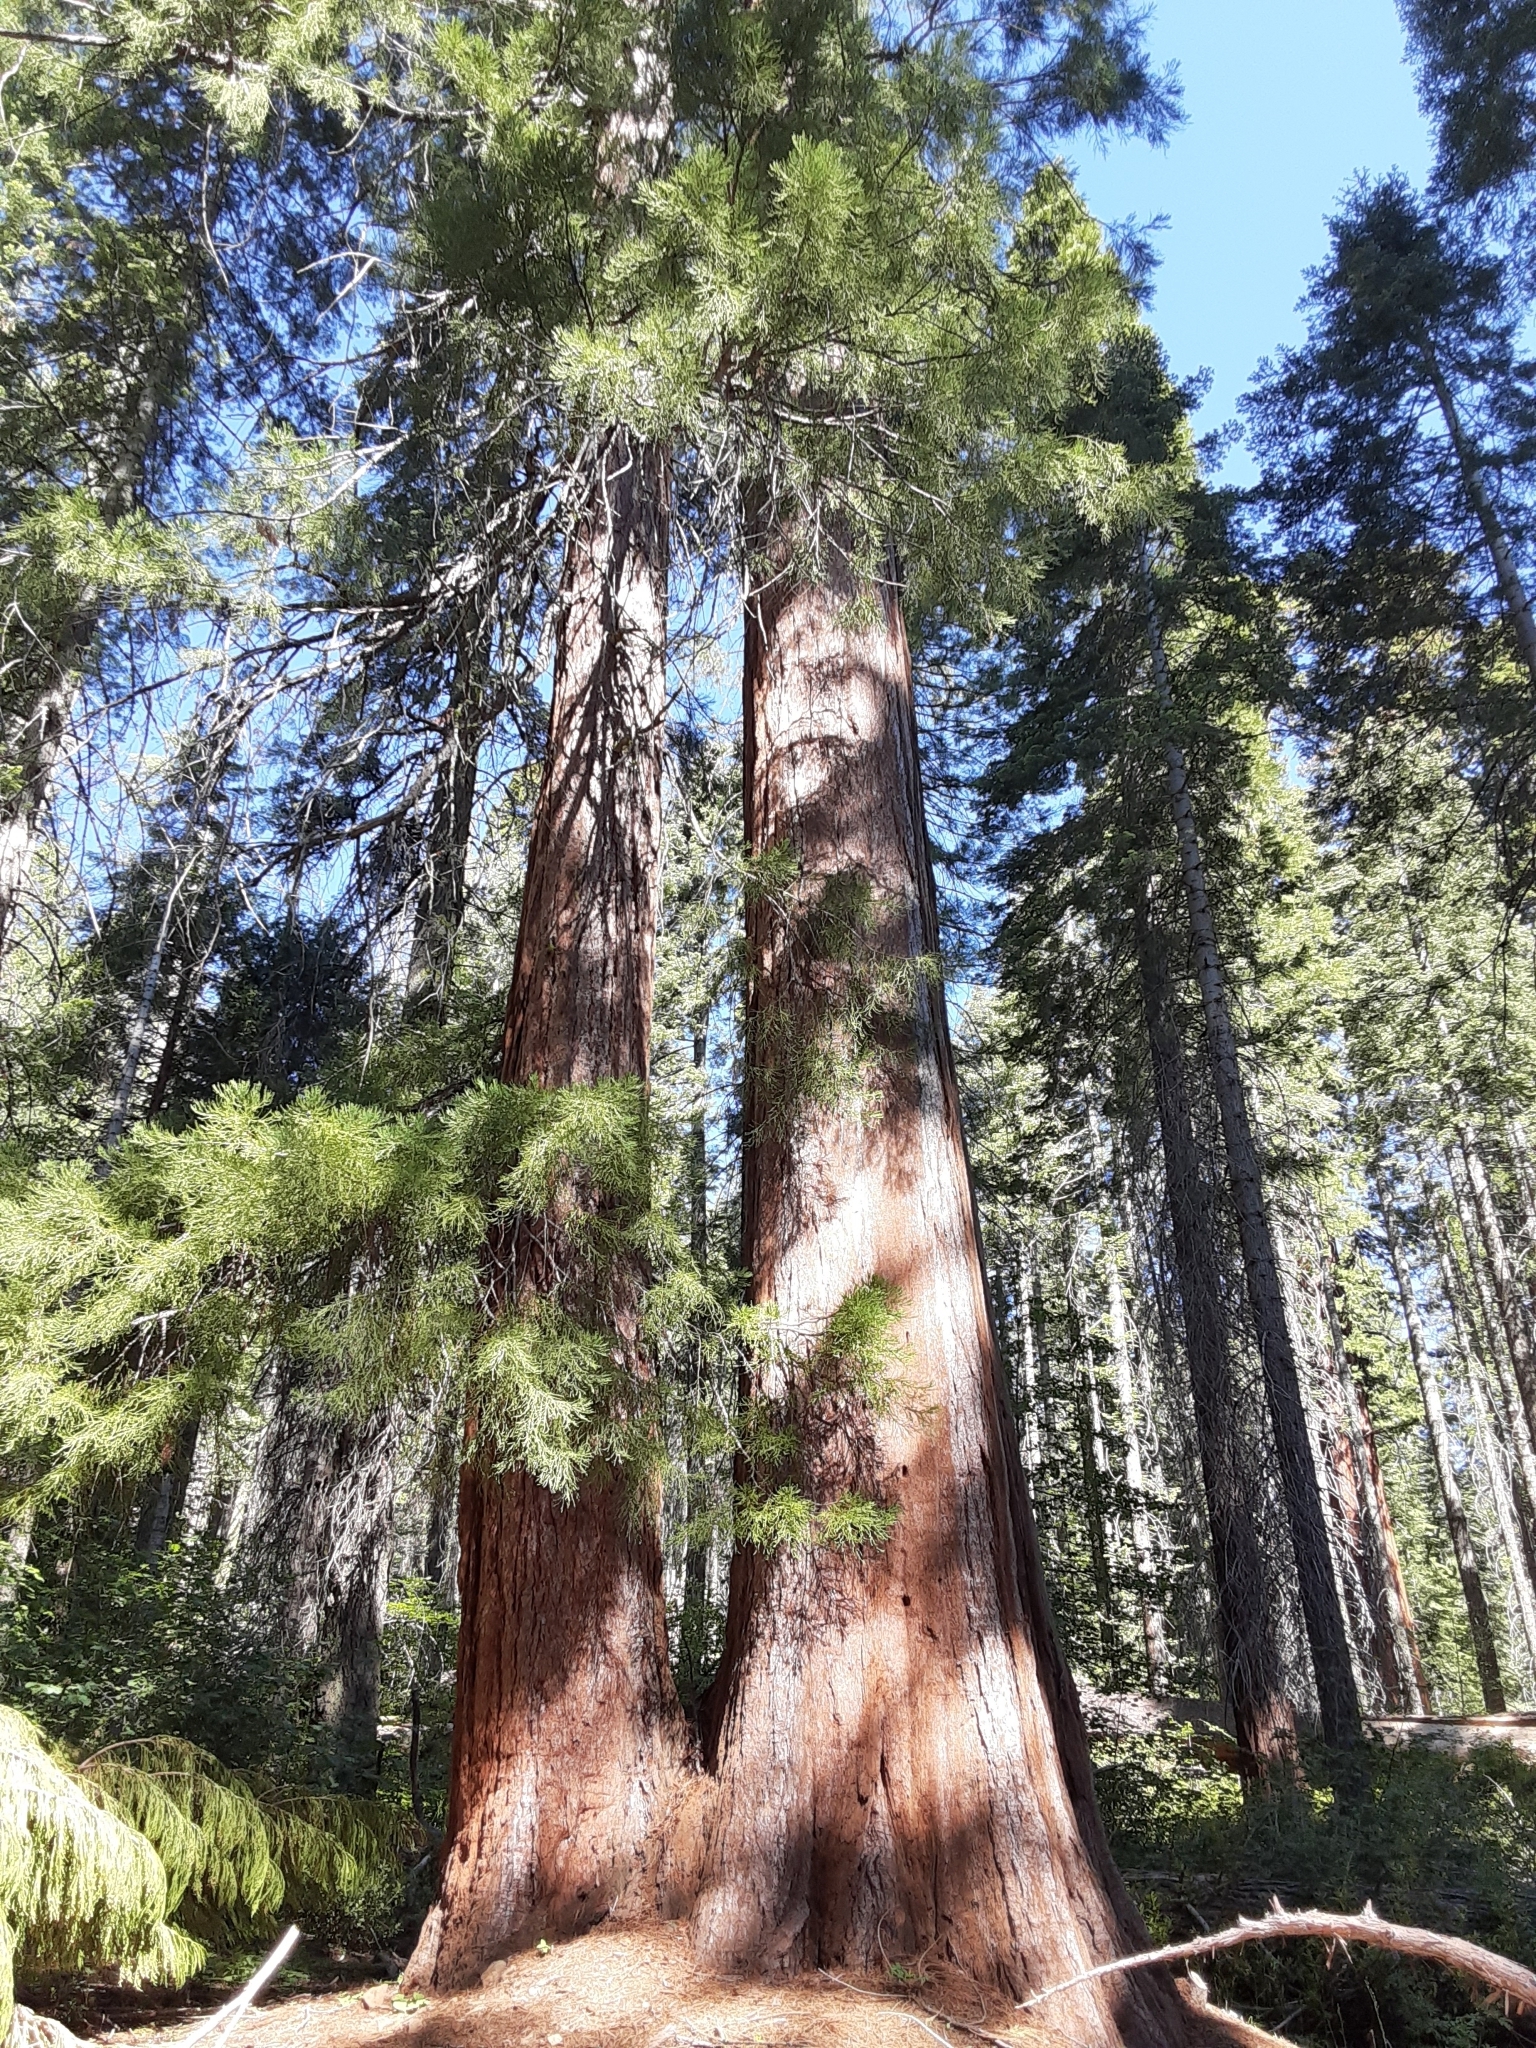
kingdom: Plantae
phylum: Tracheophyta
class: Pinopsida
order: Pinales
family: Cupressaceae
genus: Sequoiadendron
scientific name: Sequoiadendron giganteum
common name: Wellingtonia
